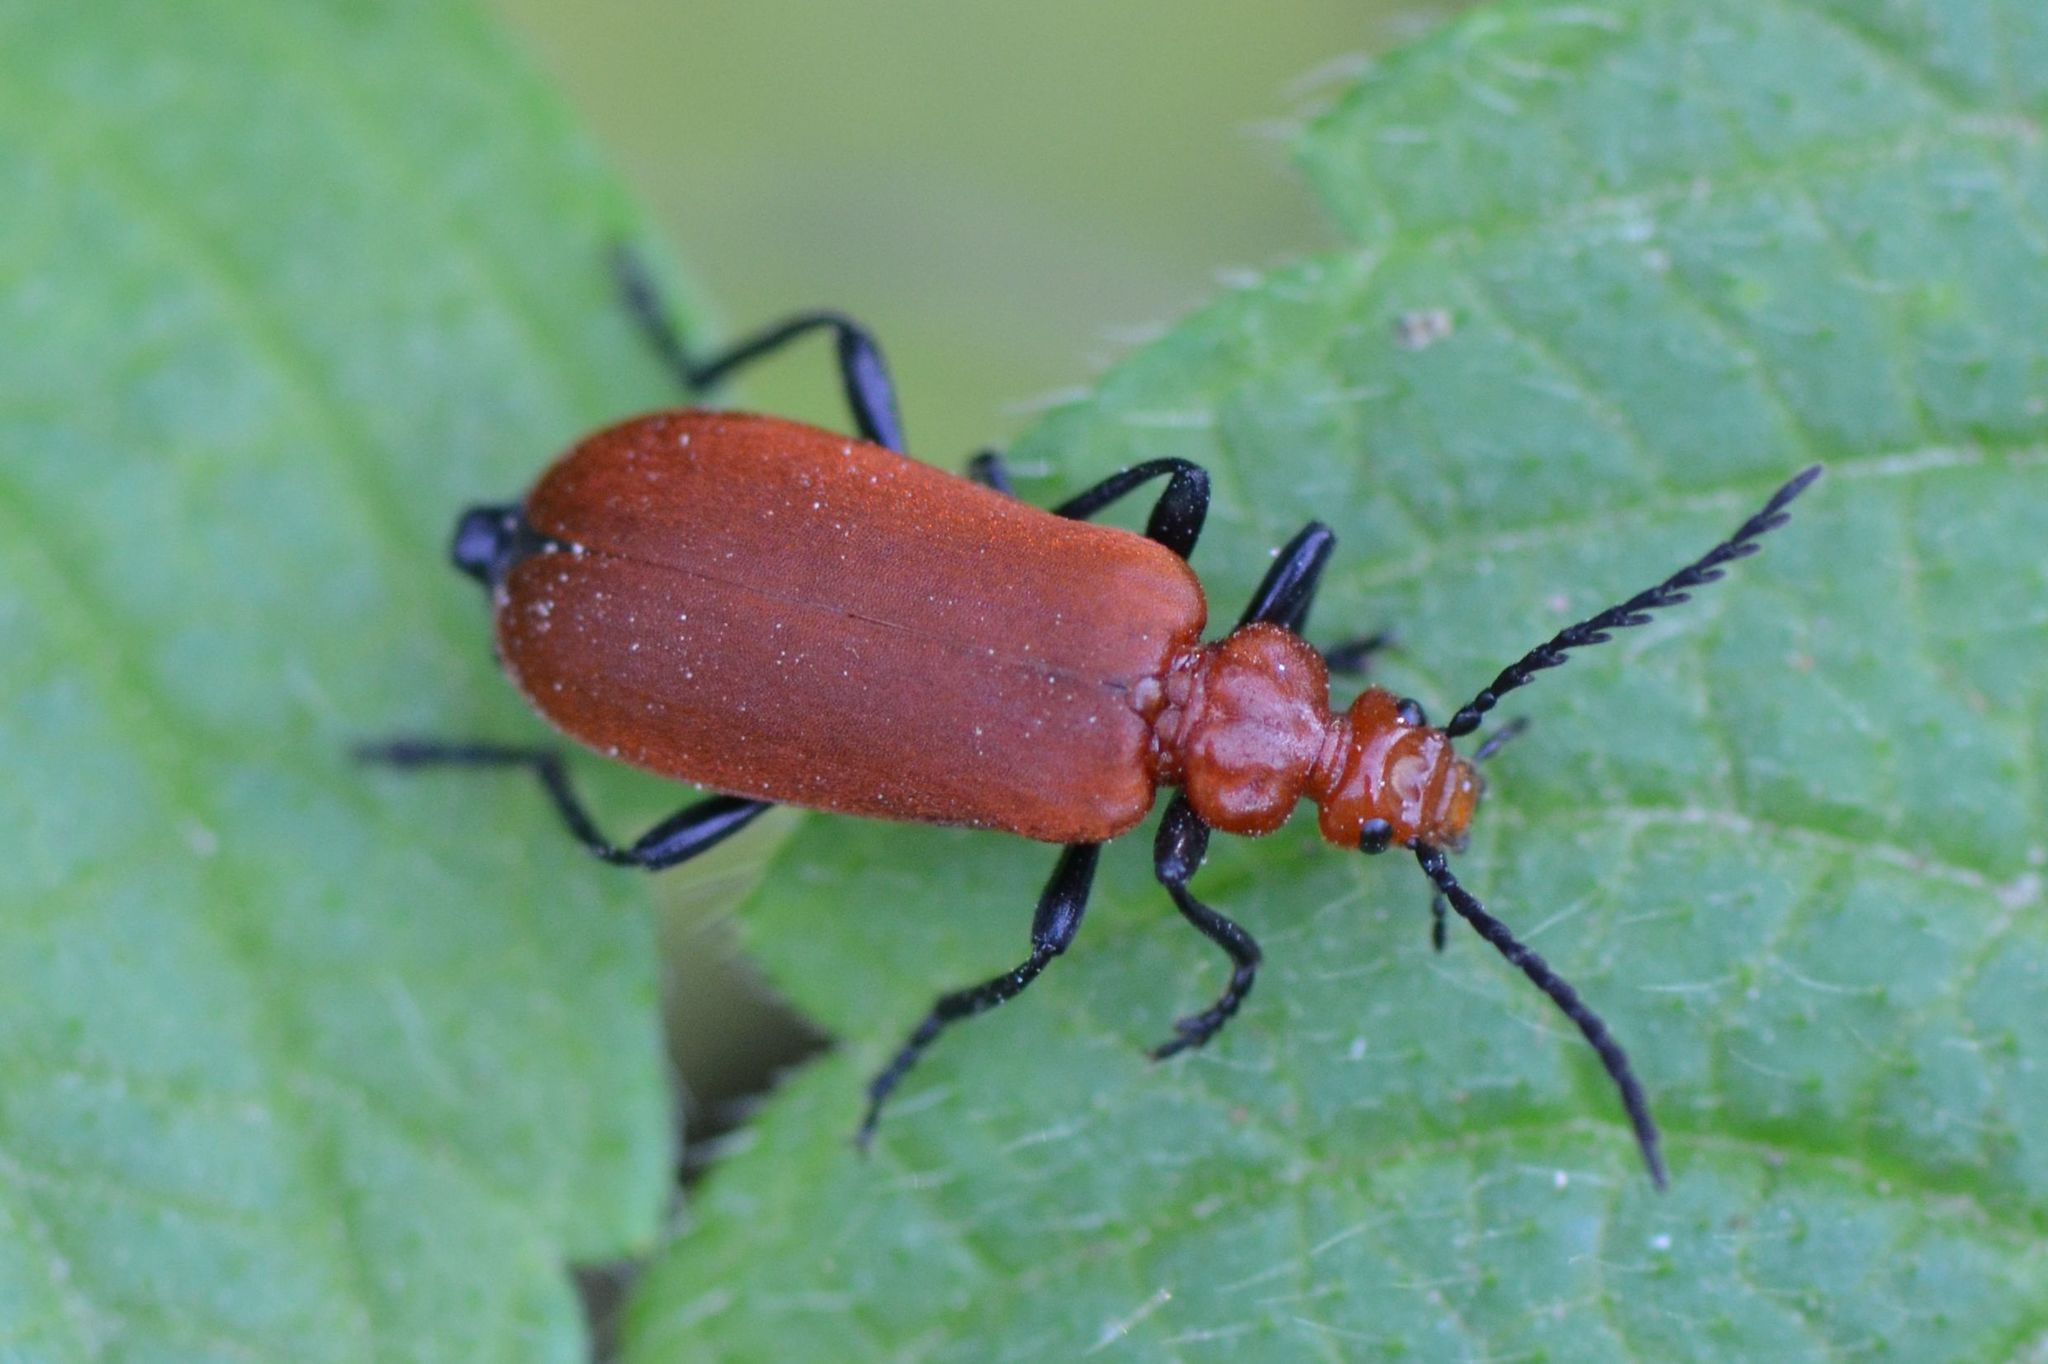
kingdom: Animalia
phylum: Arthropoda
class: Insecta
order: Coleoptera
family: Pyrochroidae
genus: Pyrochroa
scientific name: Pyrochroa serraticornis
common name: Red-headed cardinal beetle
